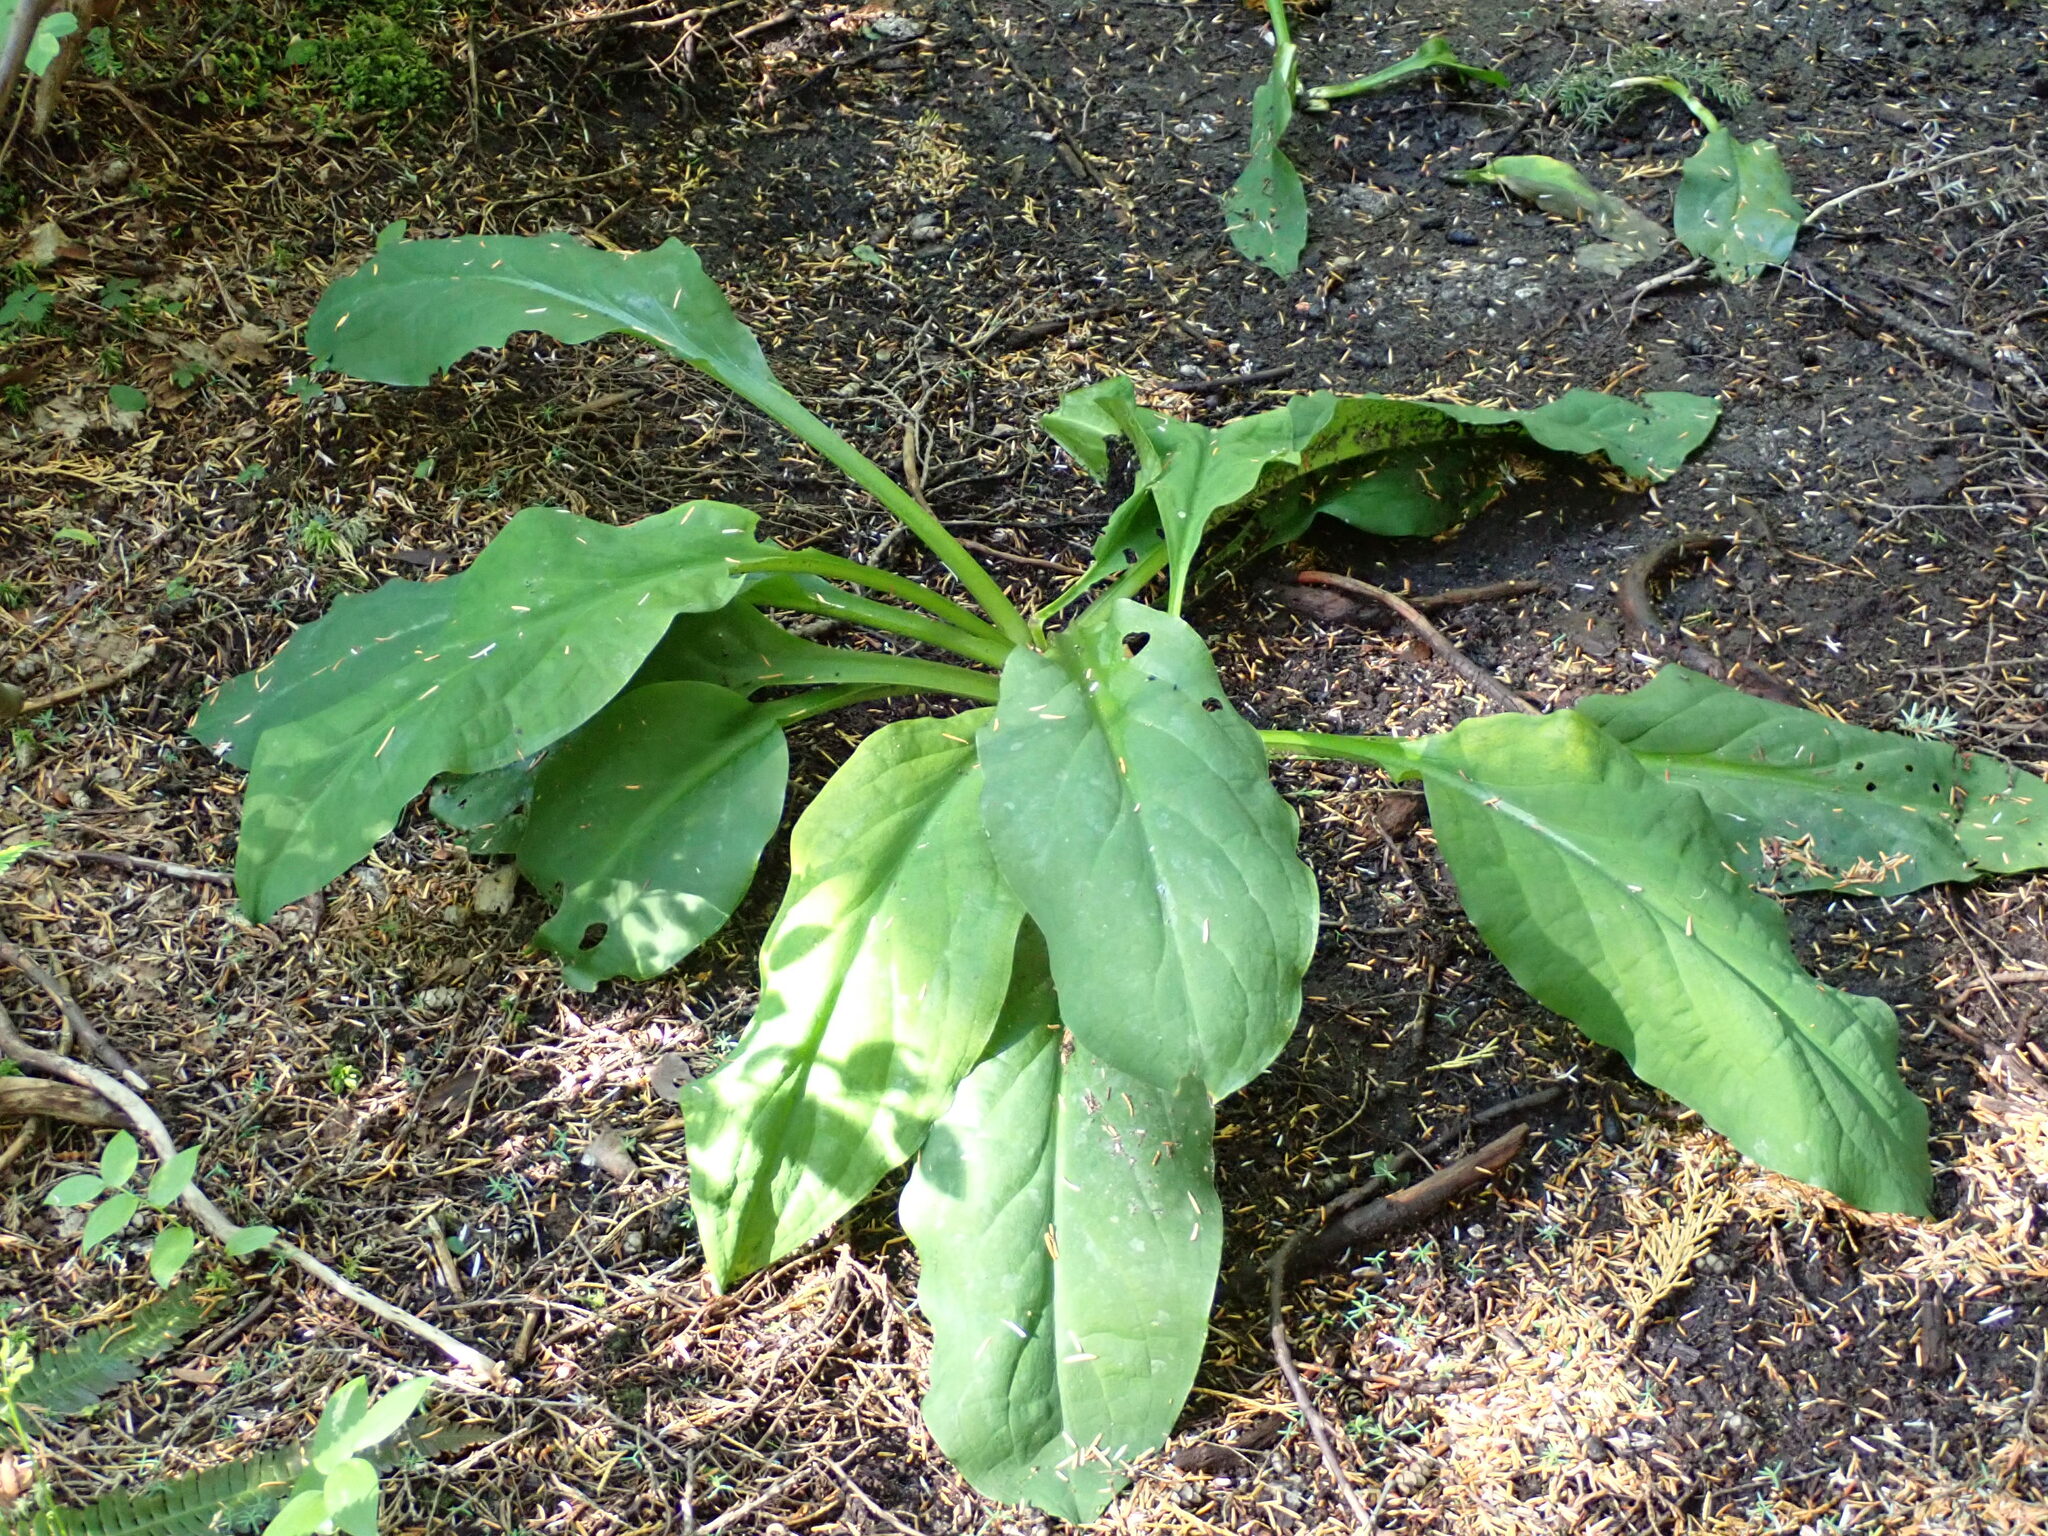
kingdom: Plantae
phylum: Tracheophyta
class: Liliopsida
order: Alismatales
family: Araceae
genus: Lysichiton
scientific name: Lysichiton americanus
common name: American skunk cabbage
